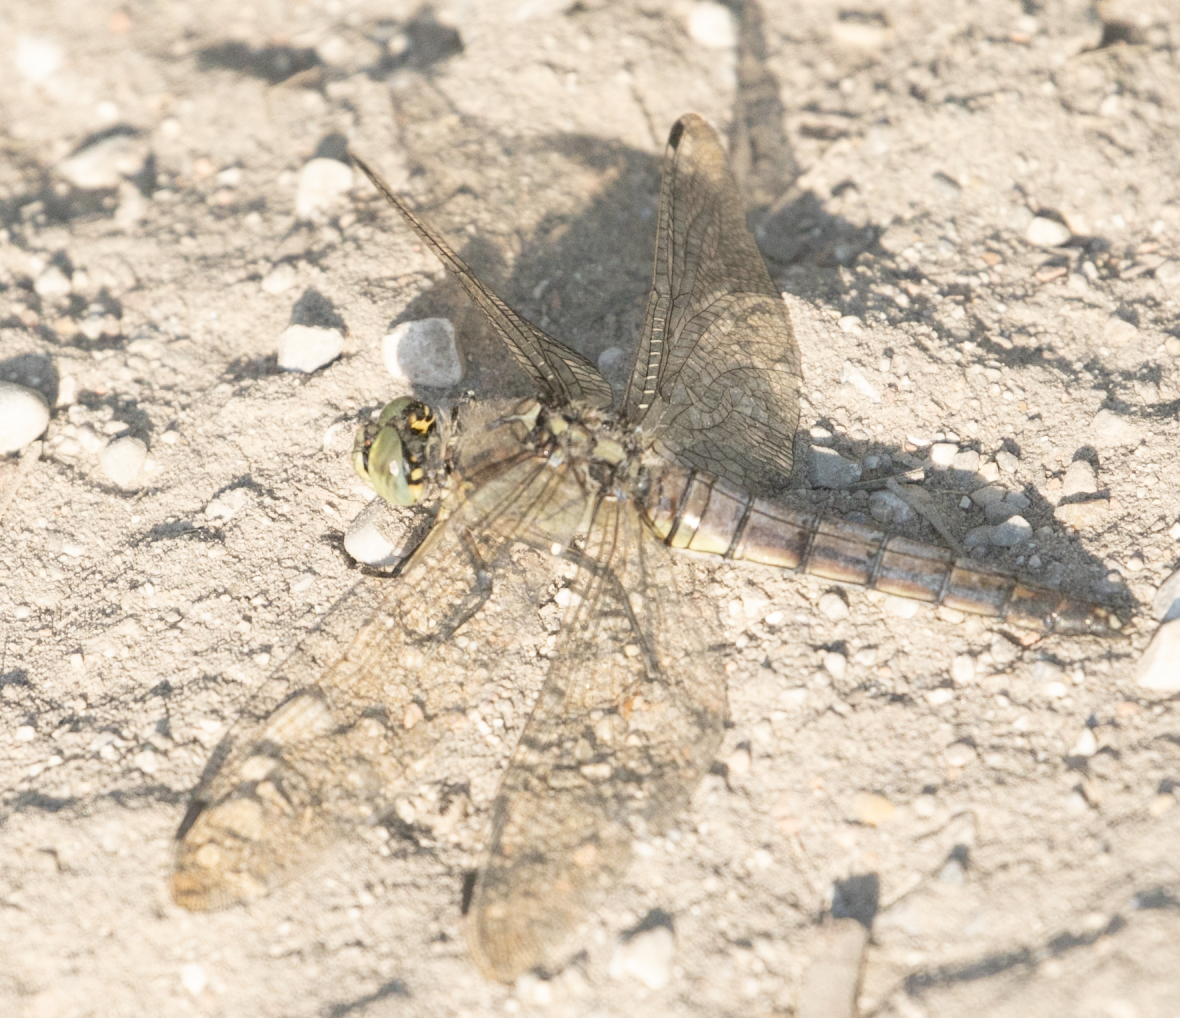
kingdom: Animalia
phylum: Arthropoda
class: Insecta
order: Odonata
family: Libellulidae
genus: Orthetrum
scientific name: Orthetrum cancellatum
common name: Black-tailed skimmer
